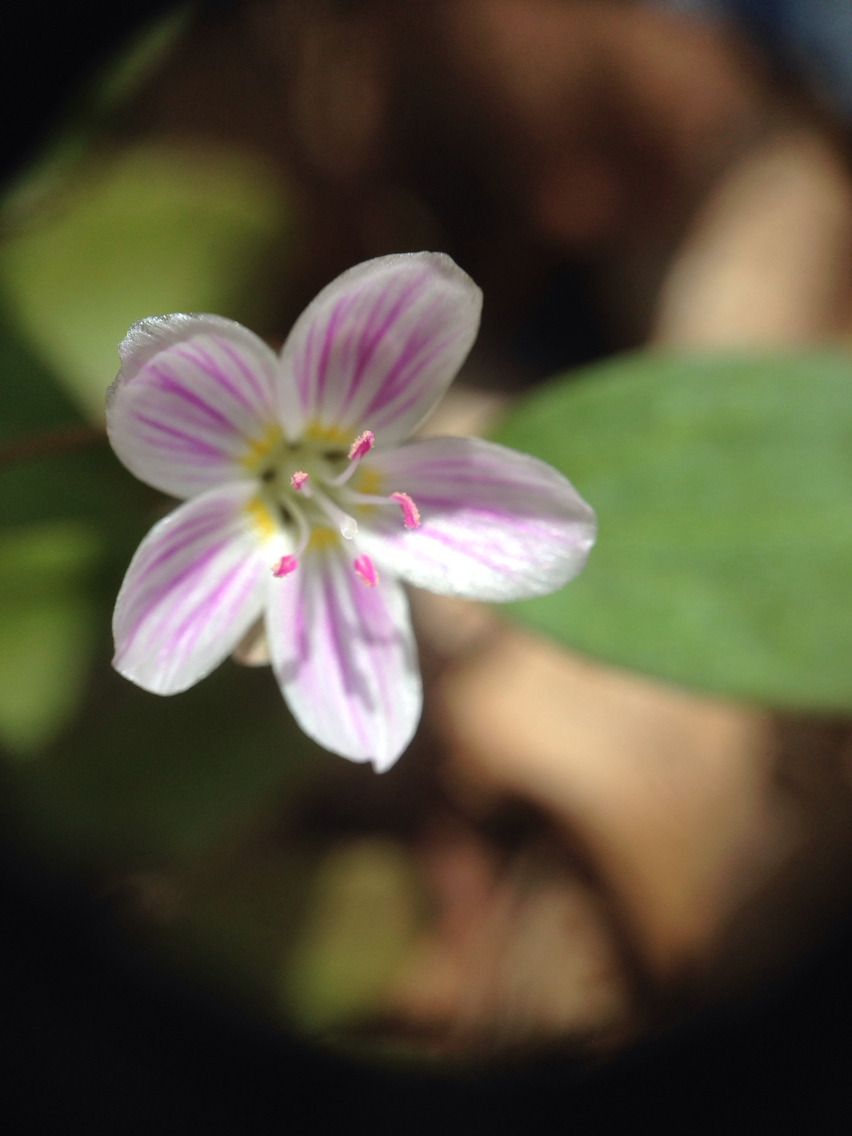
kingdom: Plantae
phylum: Tracheophyta
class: Magnoliopsida
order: Caryophyllales
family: Montiaceae
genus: Claytonia
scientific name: Claytonia caroliniana
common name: Carolina spring beauty
